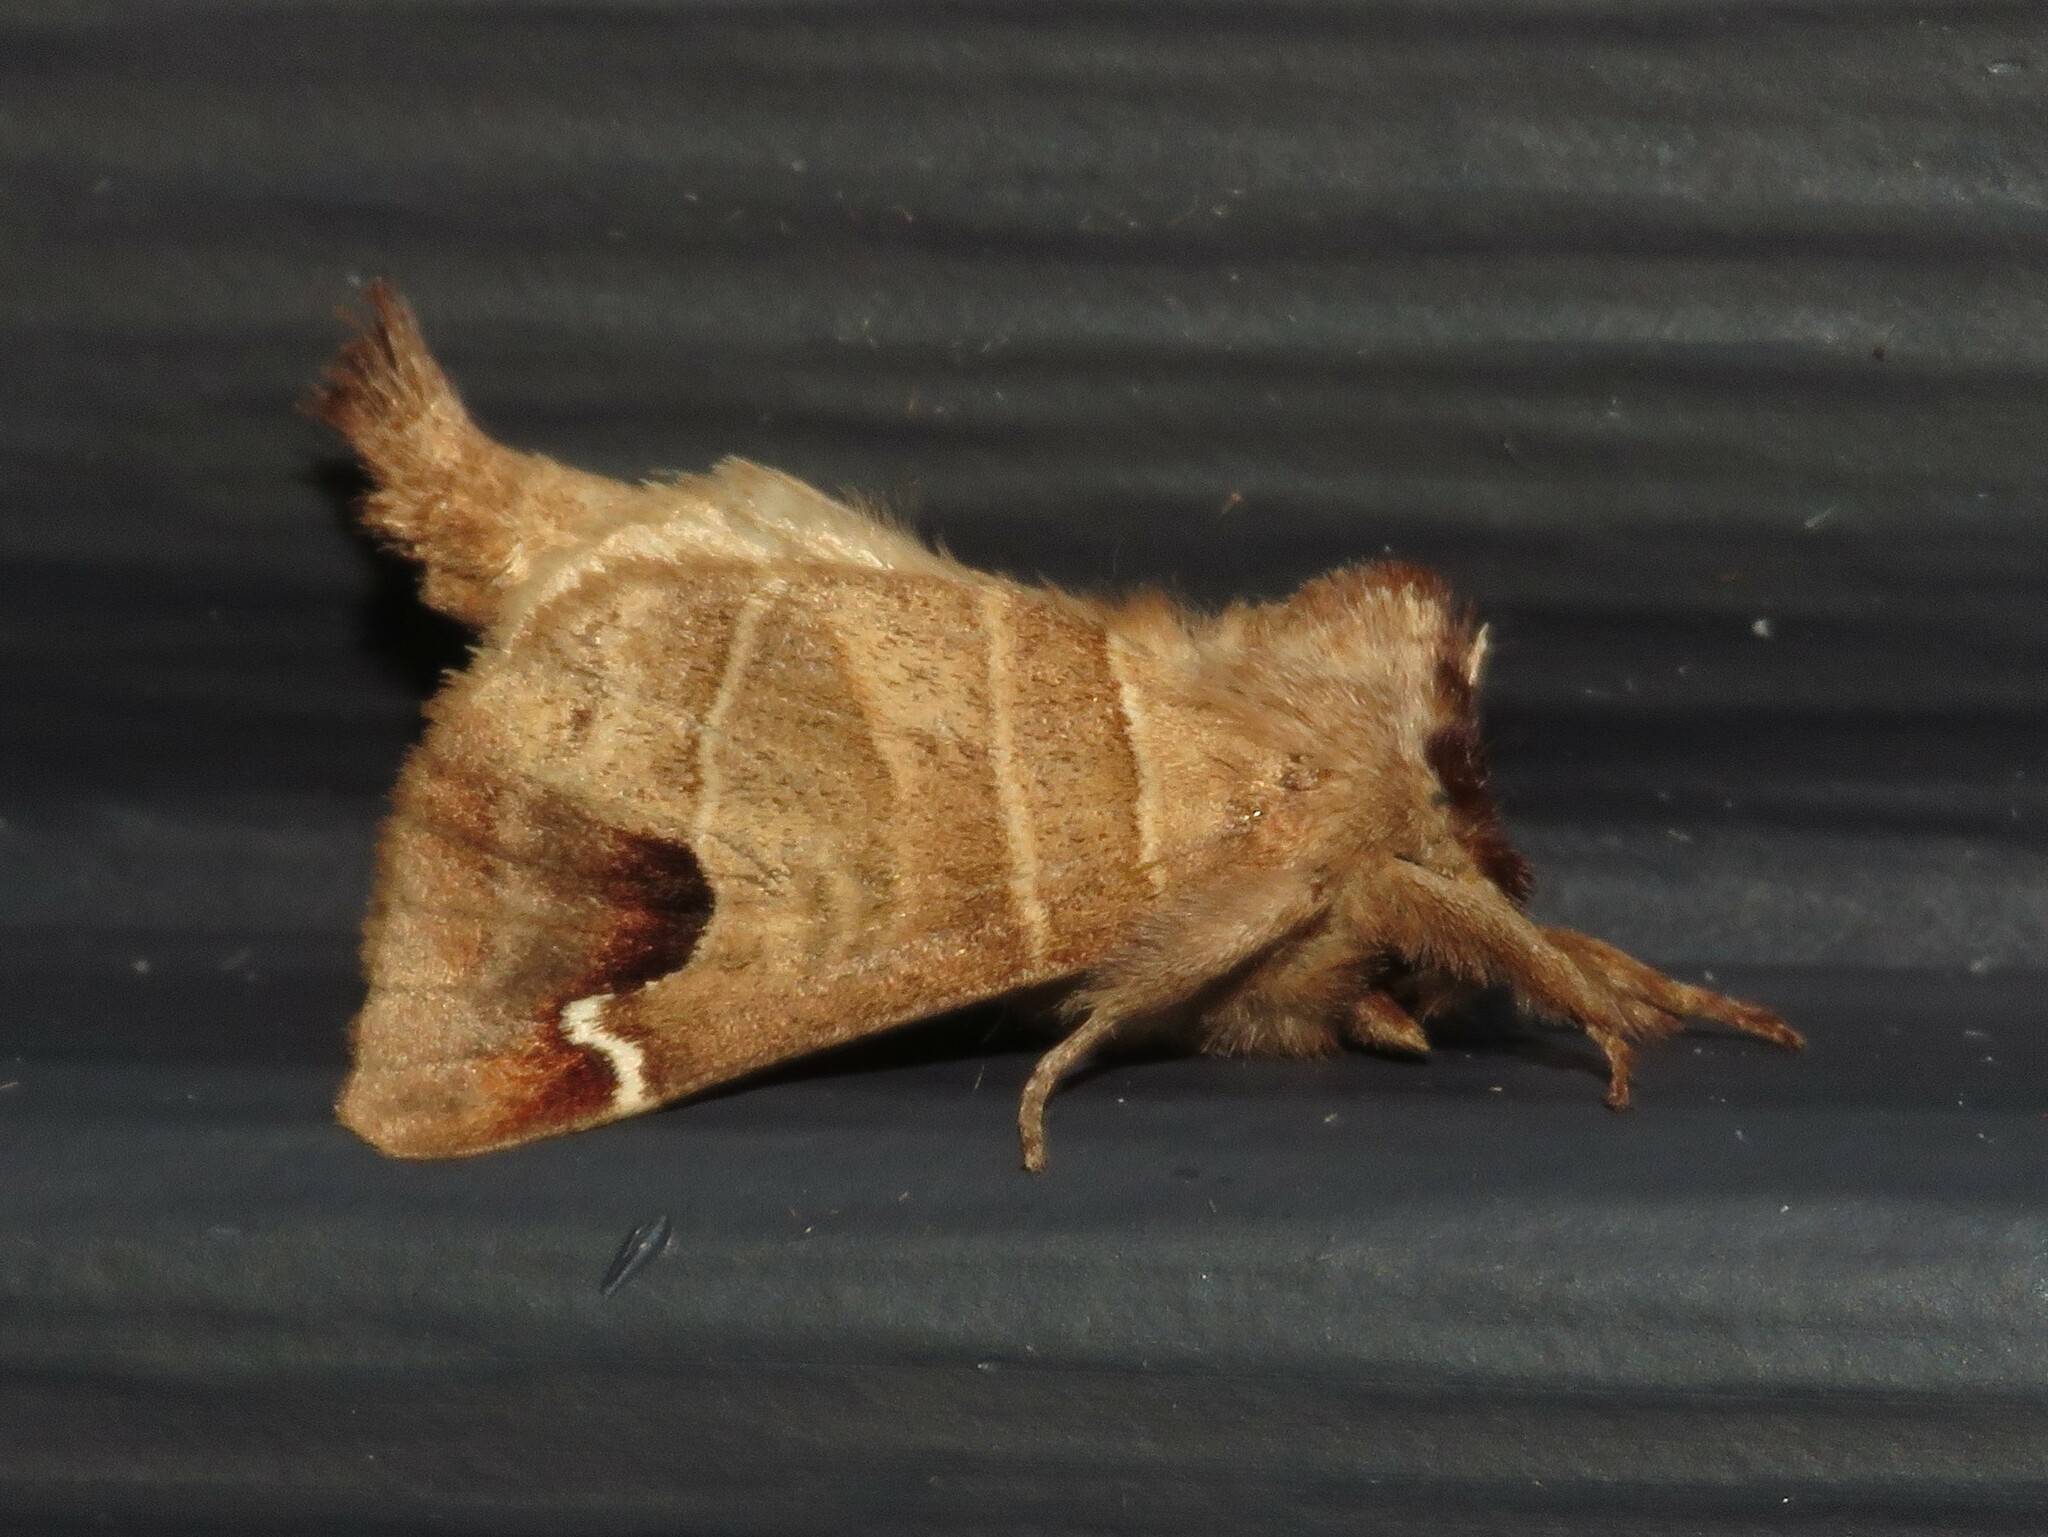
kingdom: Animalia
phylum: Arthropoda
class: Insecta
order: Lepidoptera
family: Notodontidae
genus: Clostera
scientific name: Clostera albosigma
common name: Sigmoid prominent
